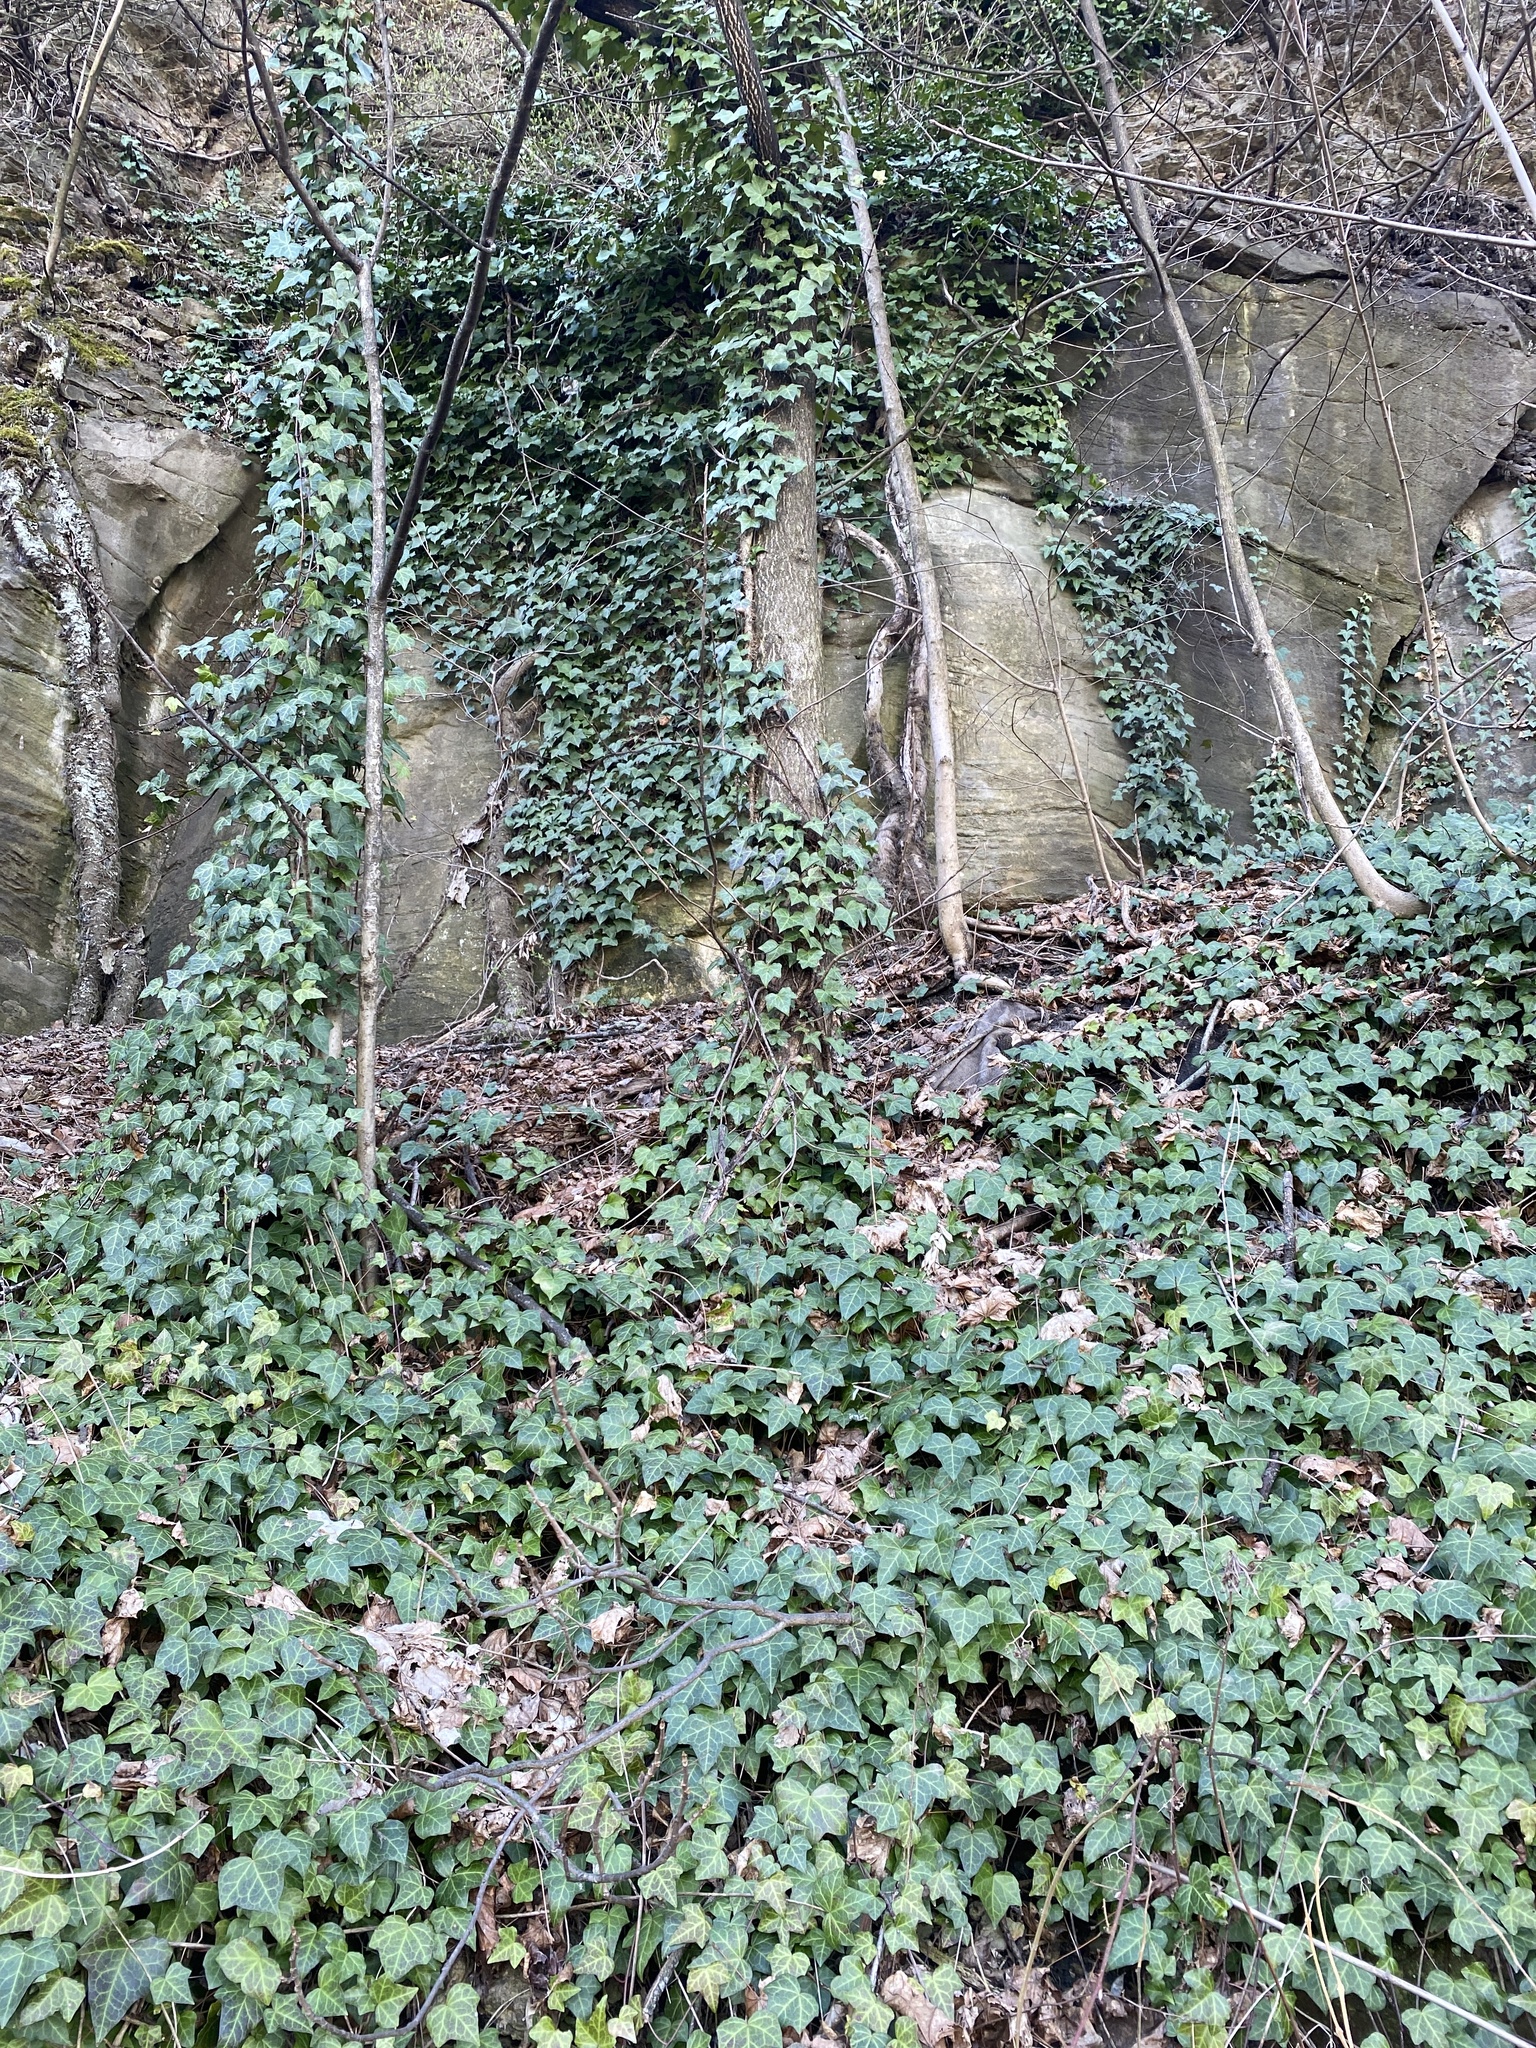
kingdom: Plantae
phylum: Tracheophyta
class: Magnoliopsida
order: Apiales
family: Araliaceae
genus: Hedera
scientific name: Hedera helix
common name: Ivy
